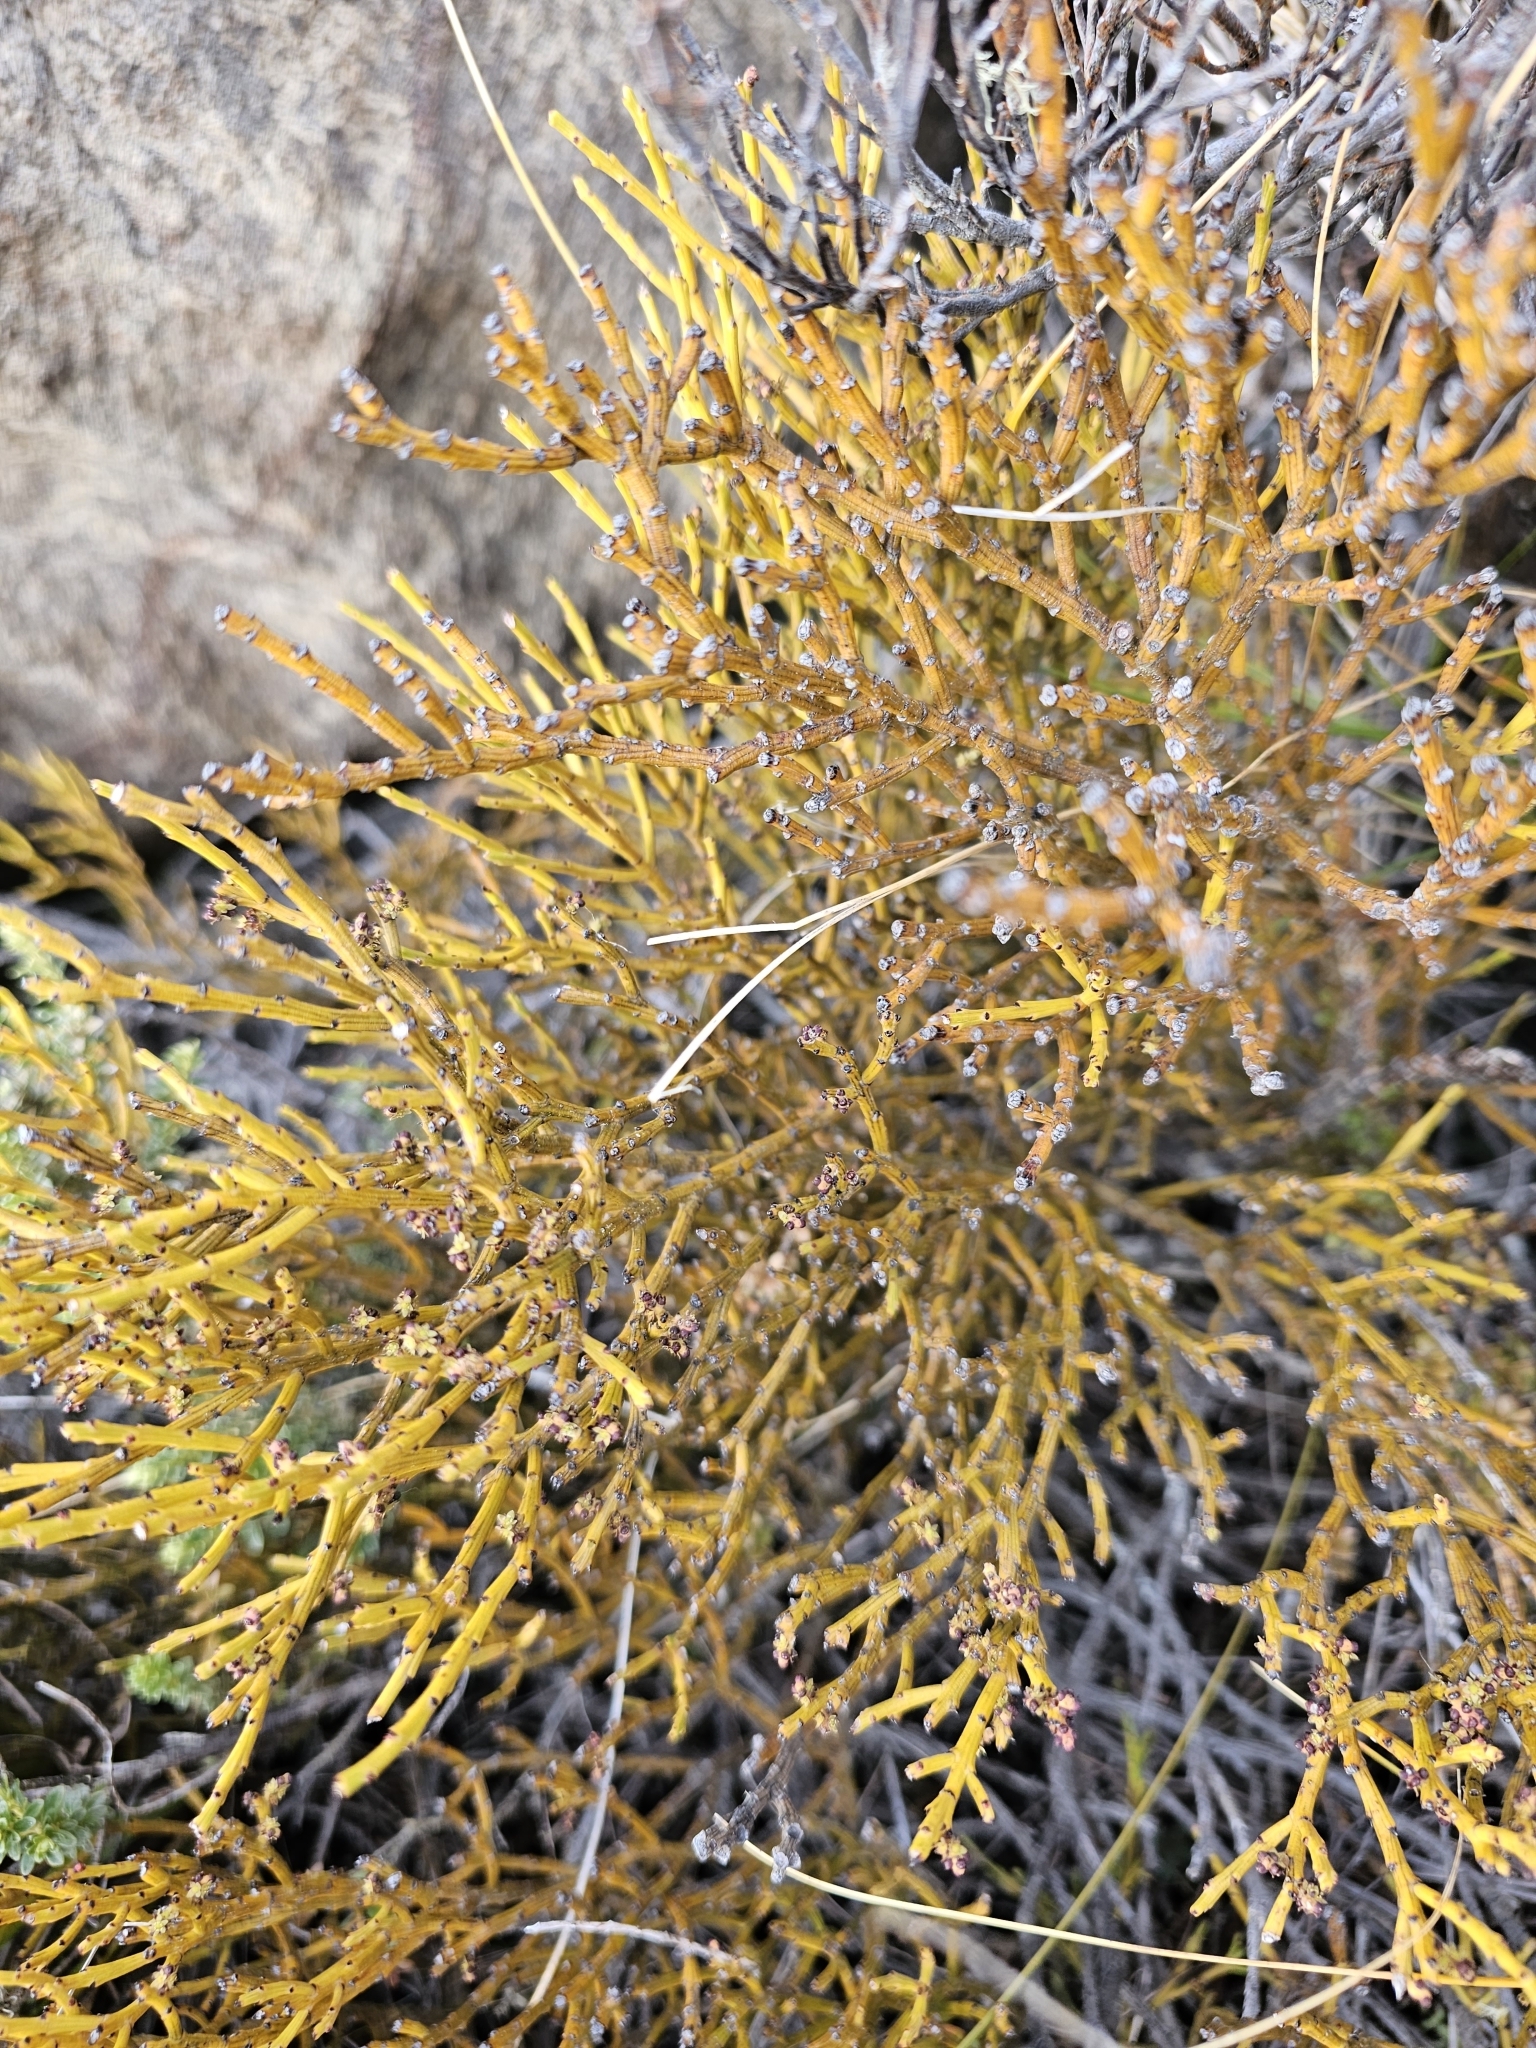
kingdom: Plantae
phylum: Tracheophyta
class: Magnoliopsida
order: Santalales
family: Santalaceae
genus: Exocarpos
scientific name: Exocarpos bidwillii
